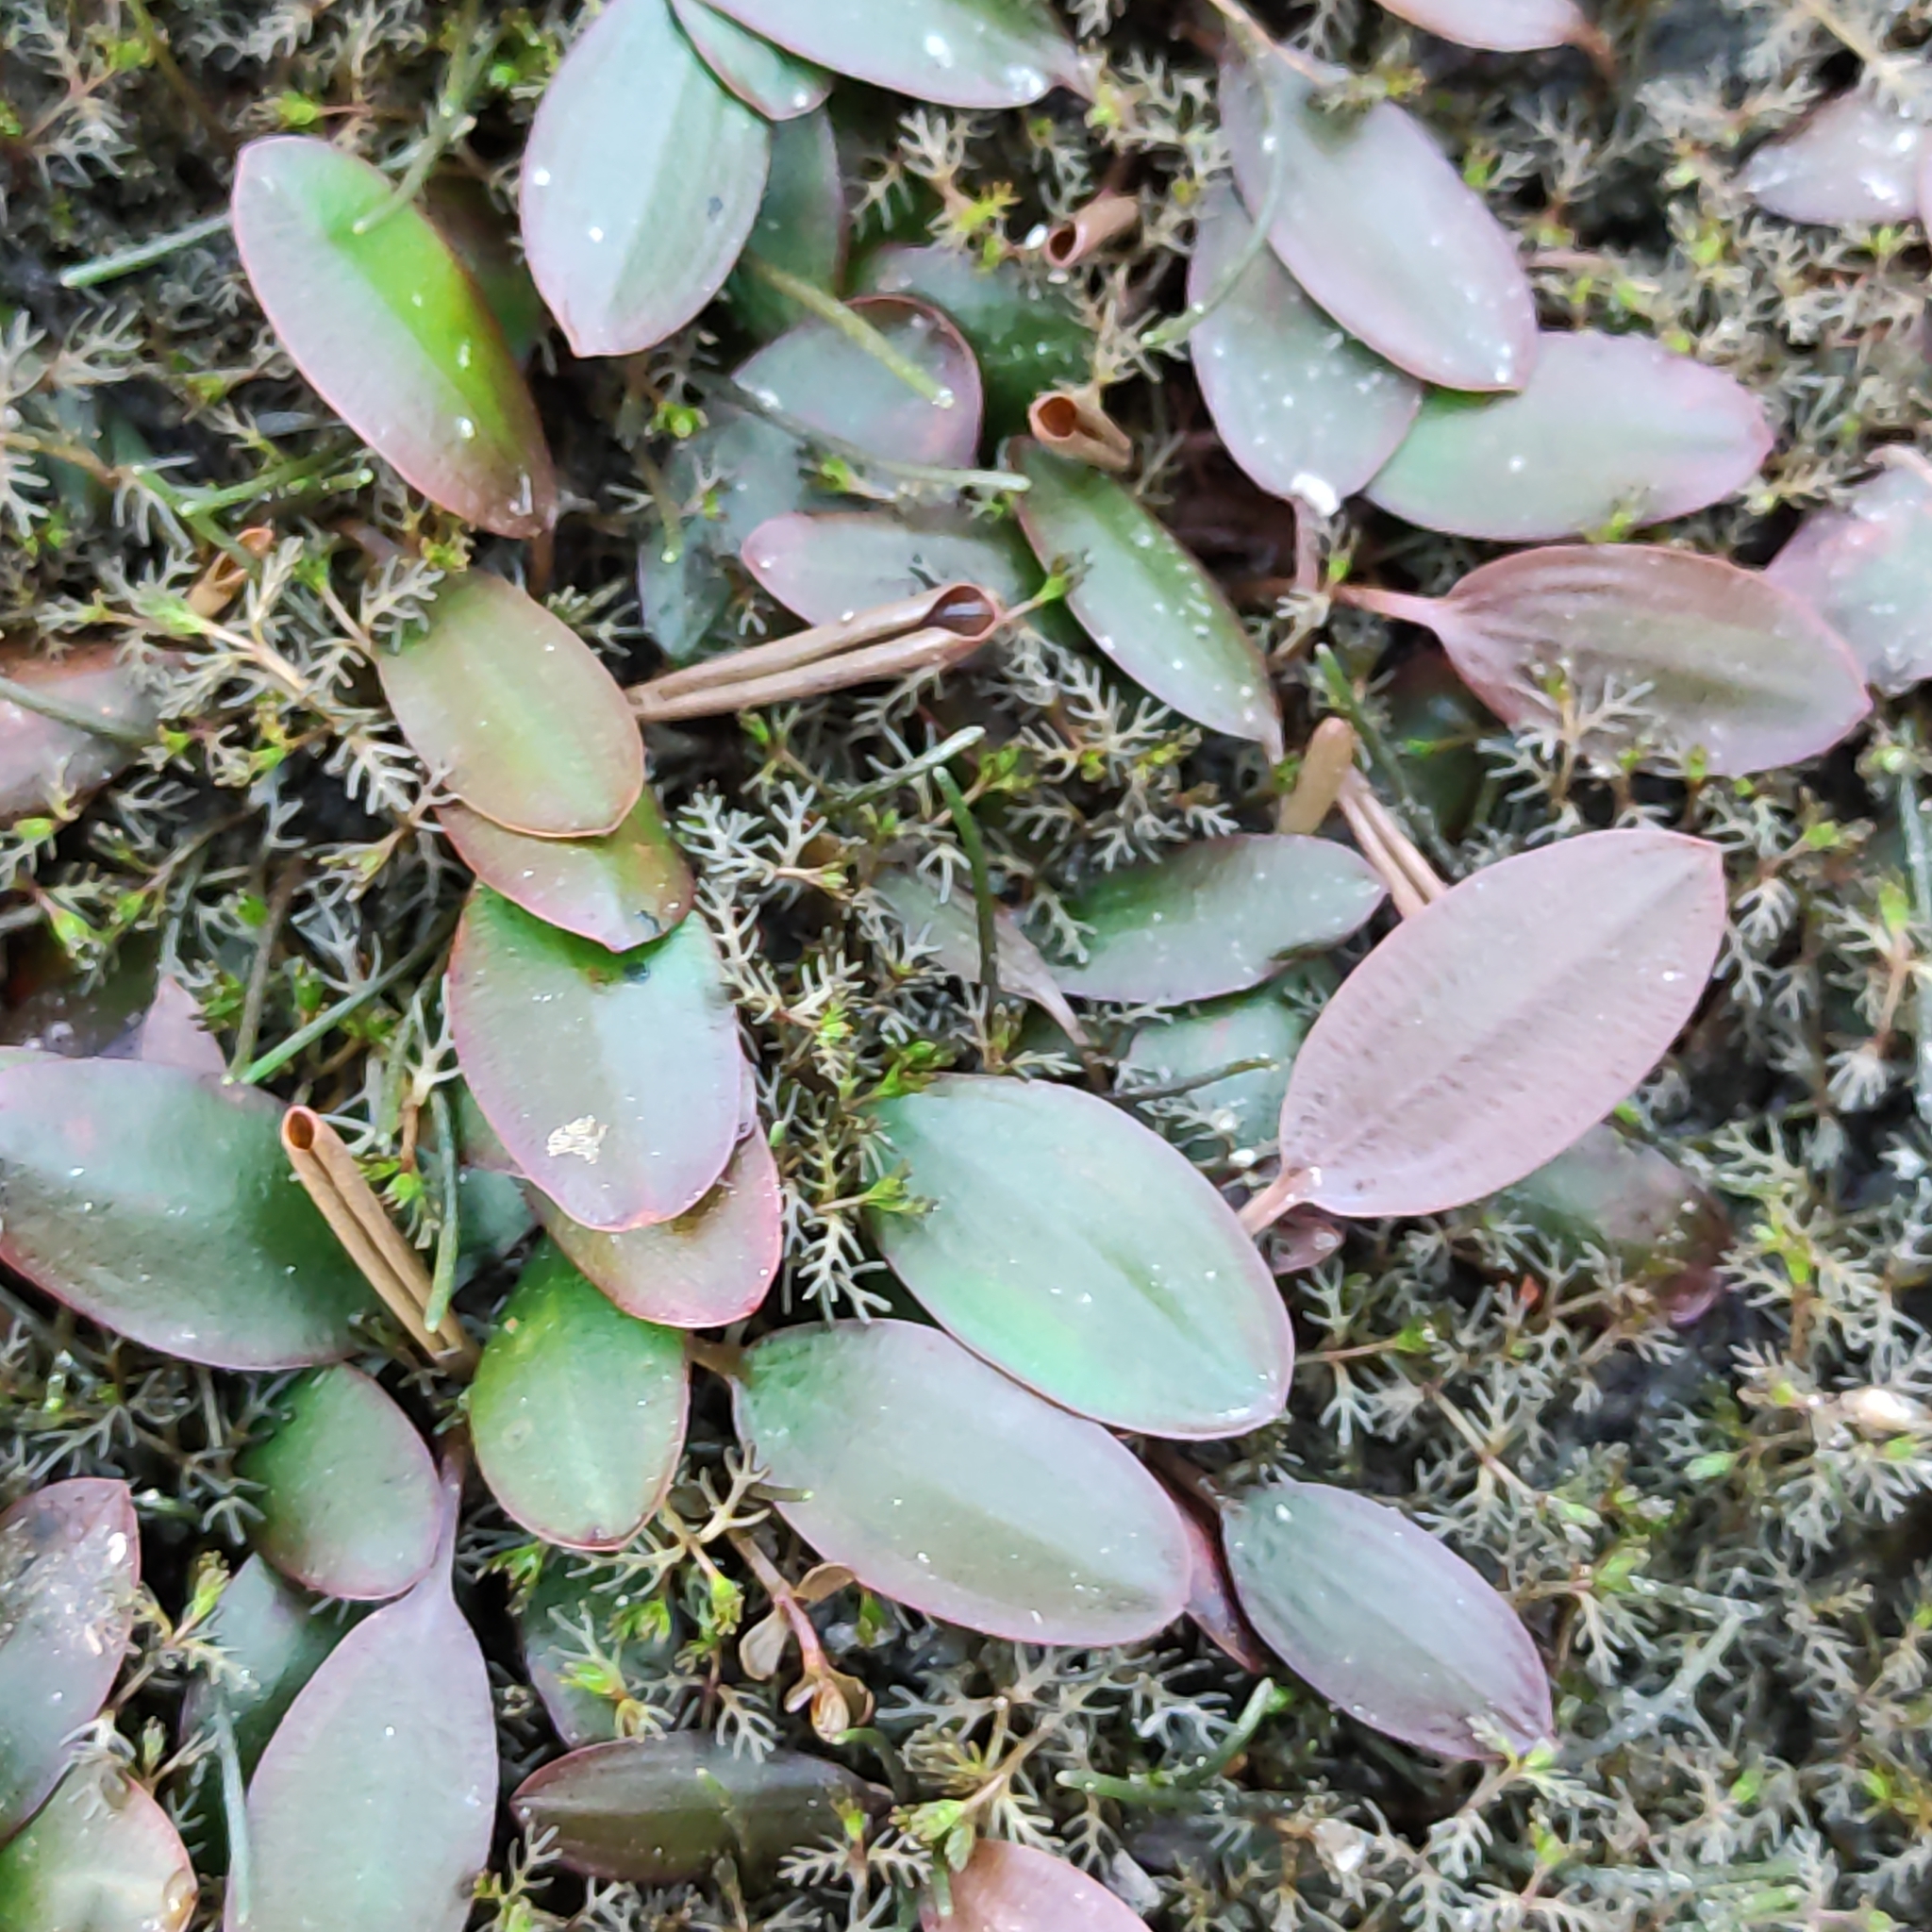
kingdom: Plantae
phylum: Tracheophyta
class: Liliopsida
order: Alismatales
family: Potamogetonaceae
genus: Potamogeton
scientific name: Potamogeton cheesemanii
